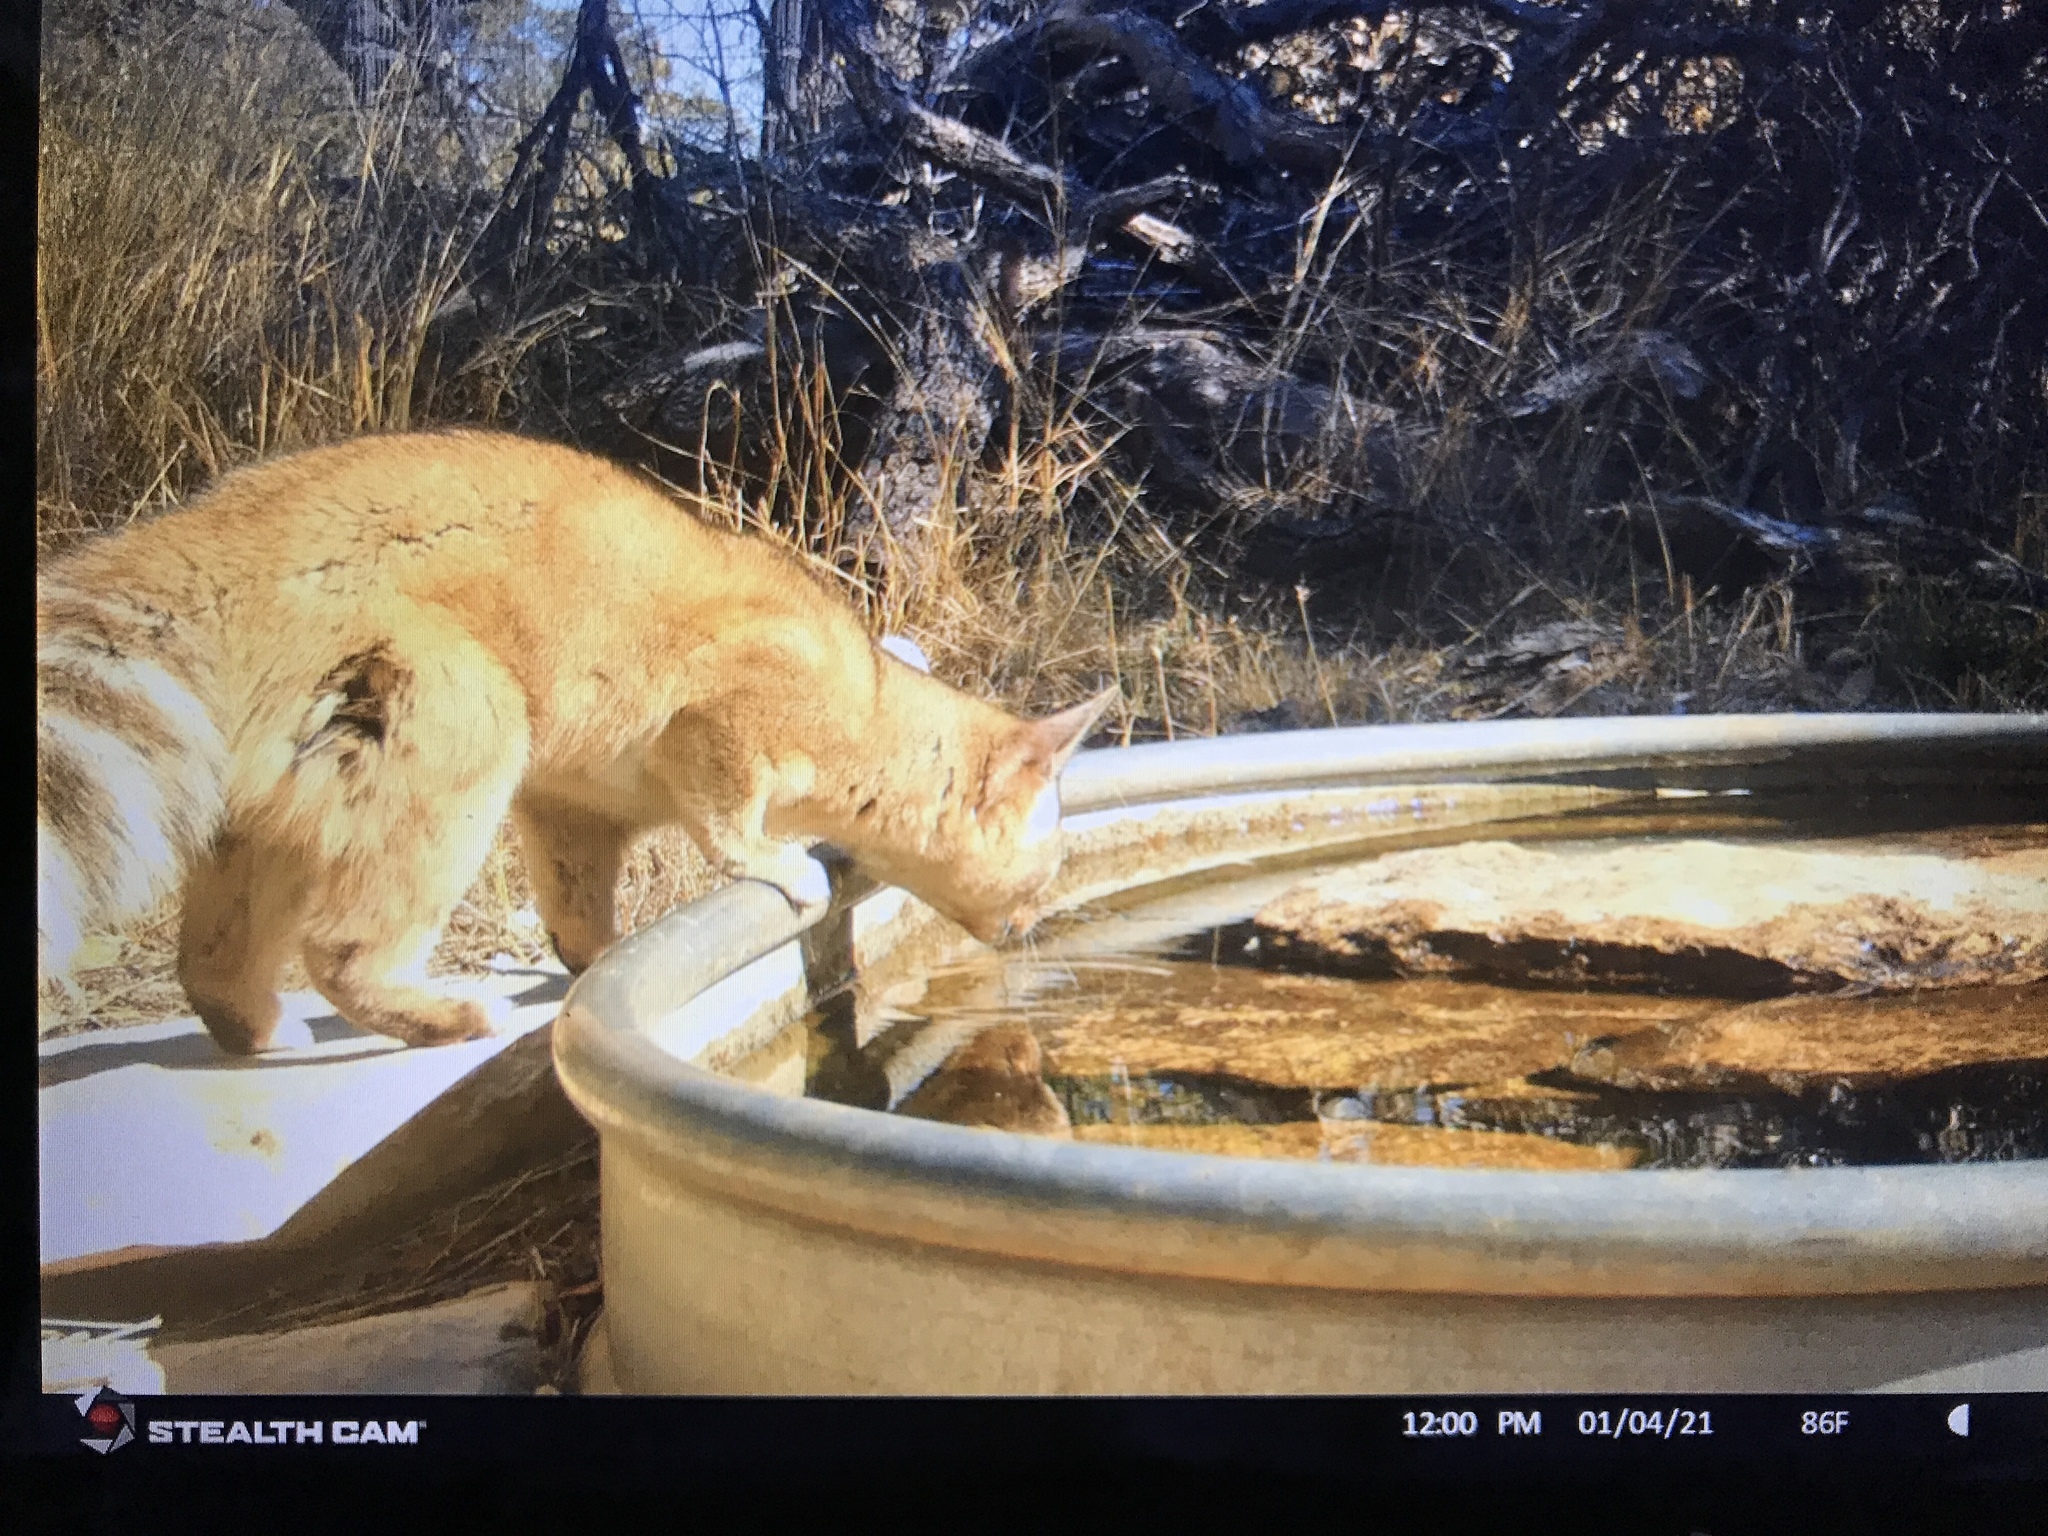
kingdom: Animalia
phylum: Chordata
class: Mammalia
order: Carnivora
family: Procyonidae
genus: Bassariscus
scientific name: Bassariscus astutus
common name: Ringtail
